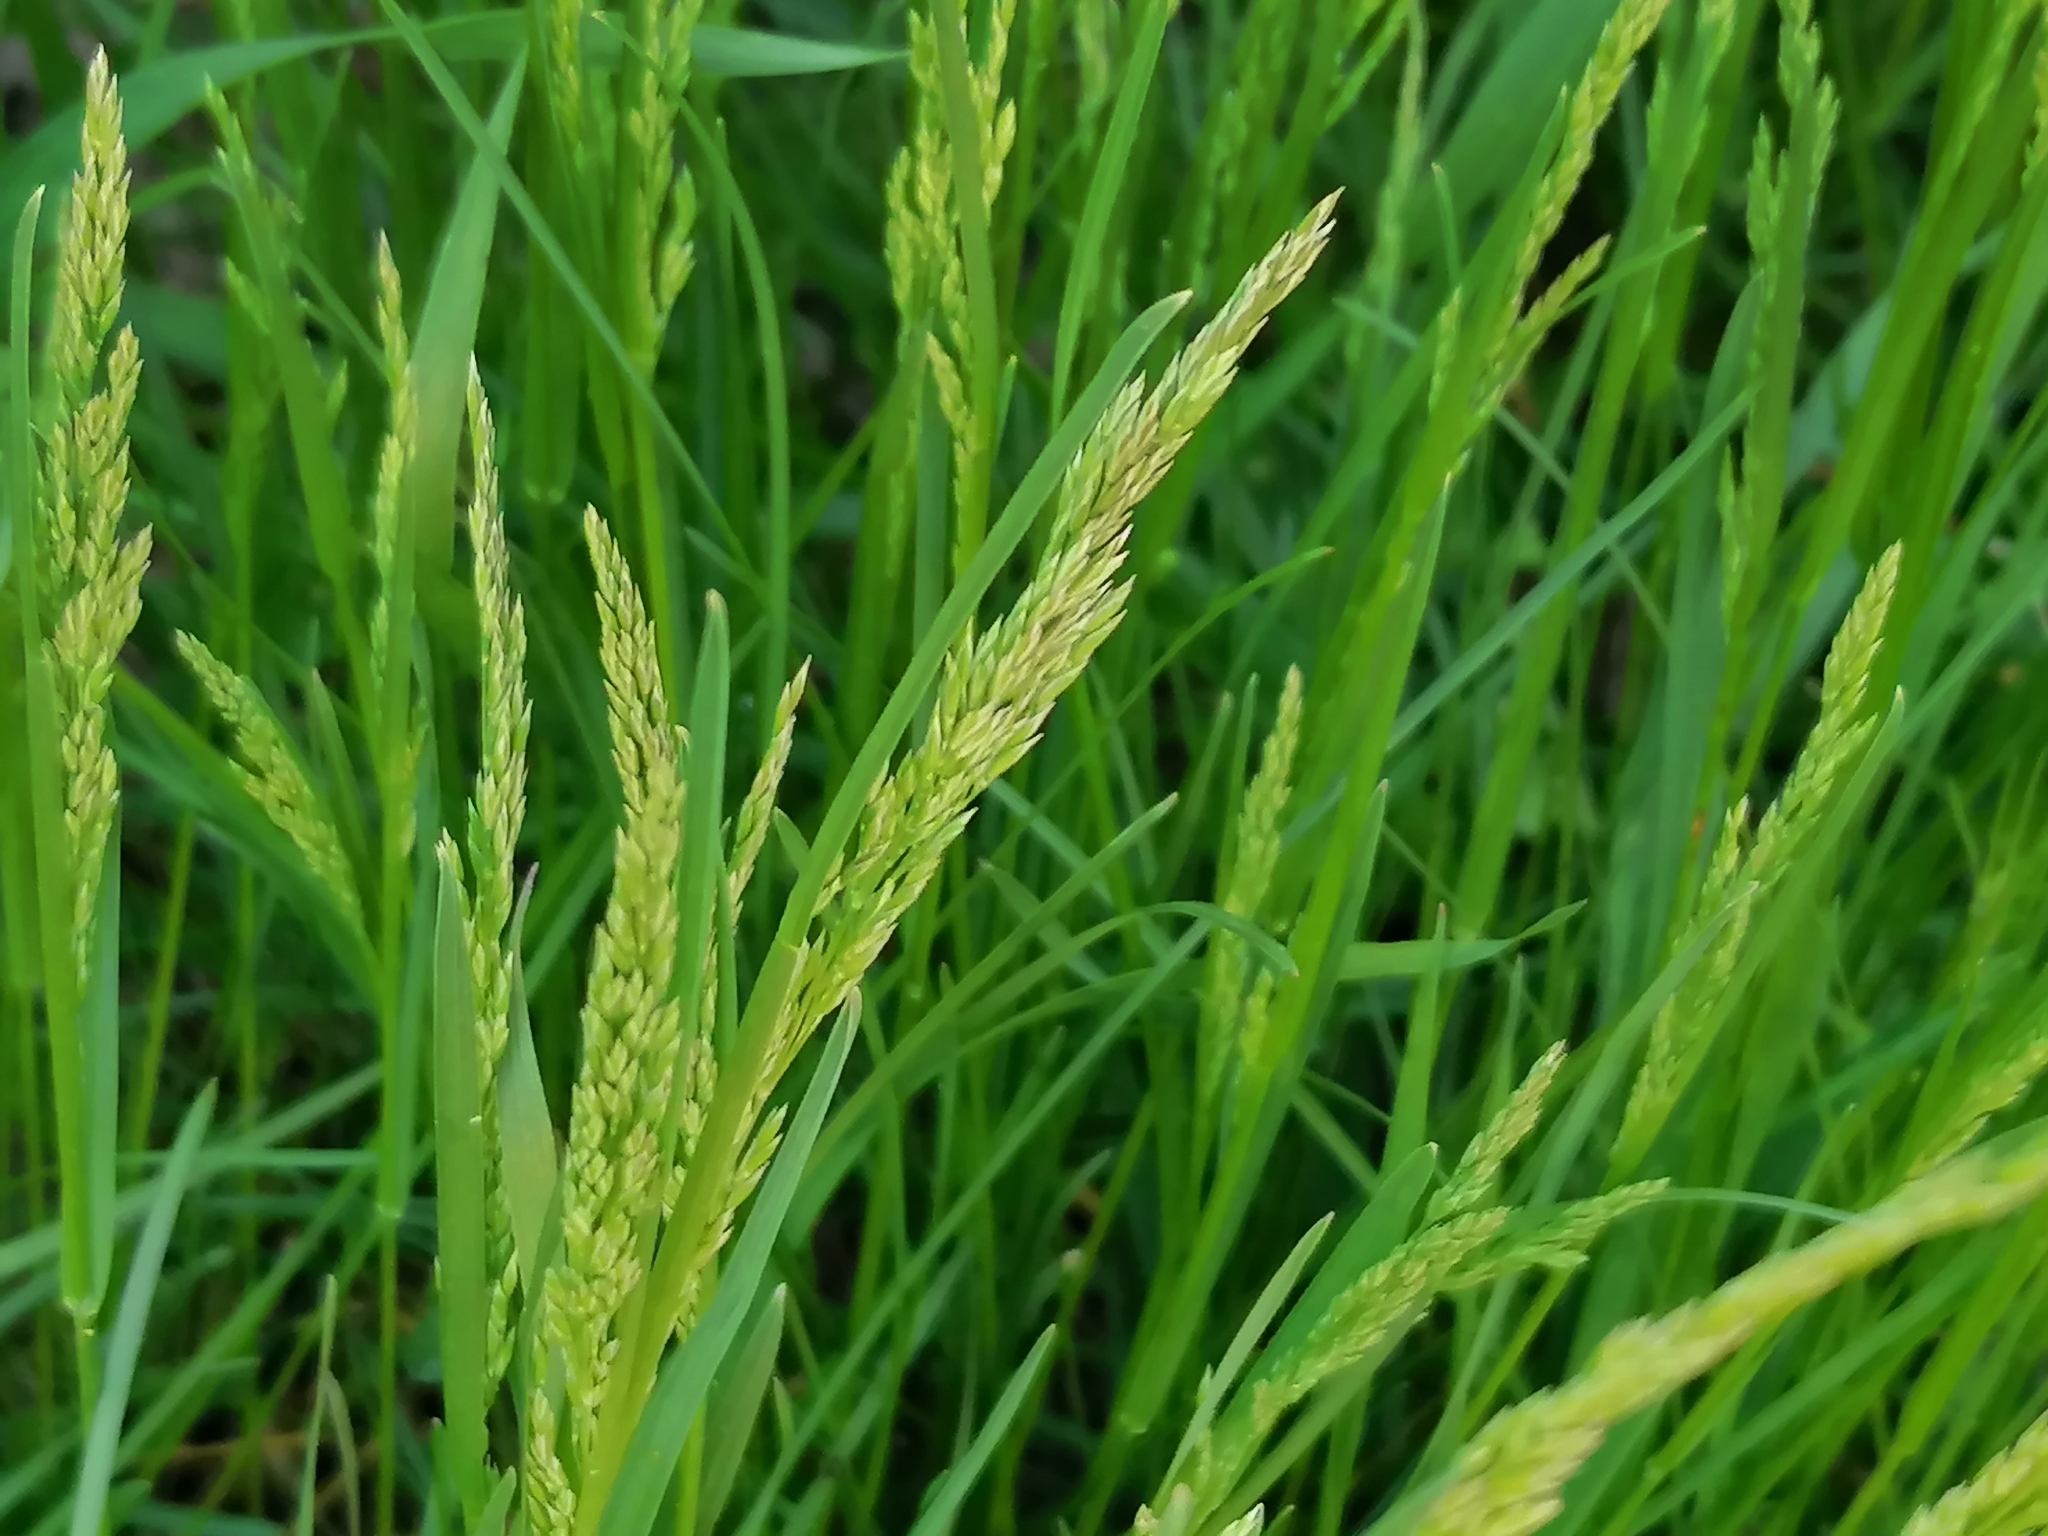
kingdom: Plantae
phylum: Tracheophyta
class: Liliopsida
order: Poales
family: Poaceae
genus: Poa
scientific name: Poa pratensis
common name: Kentucky bluegrass
